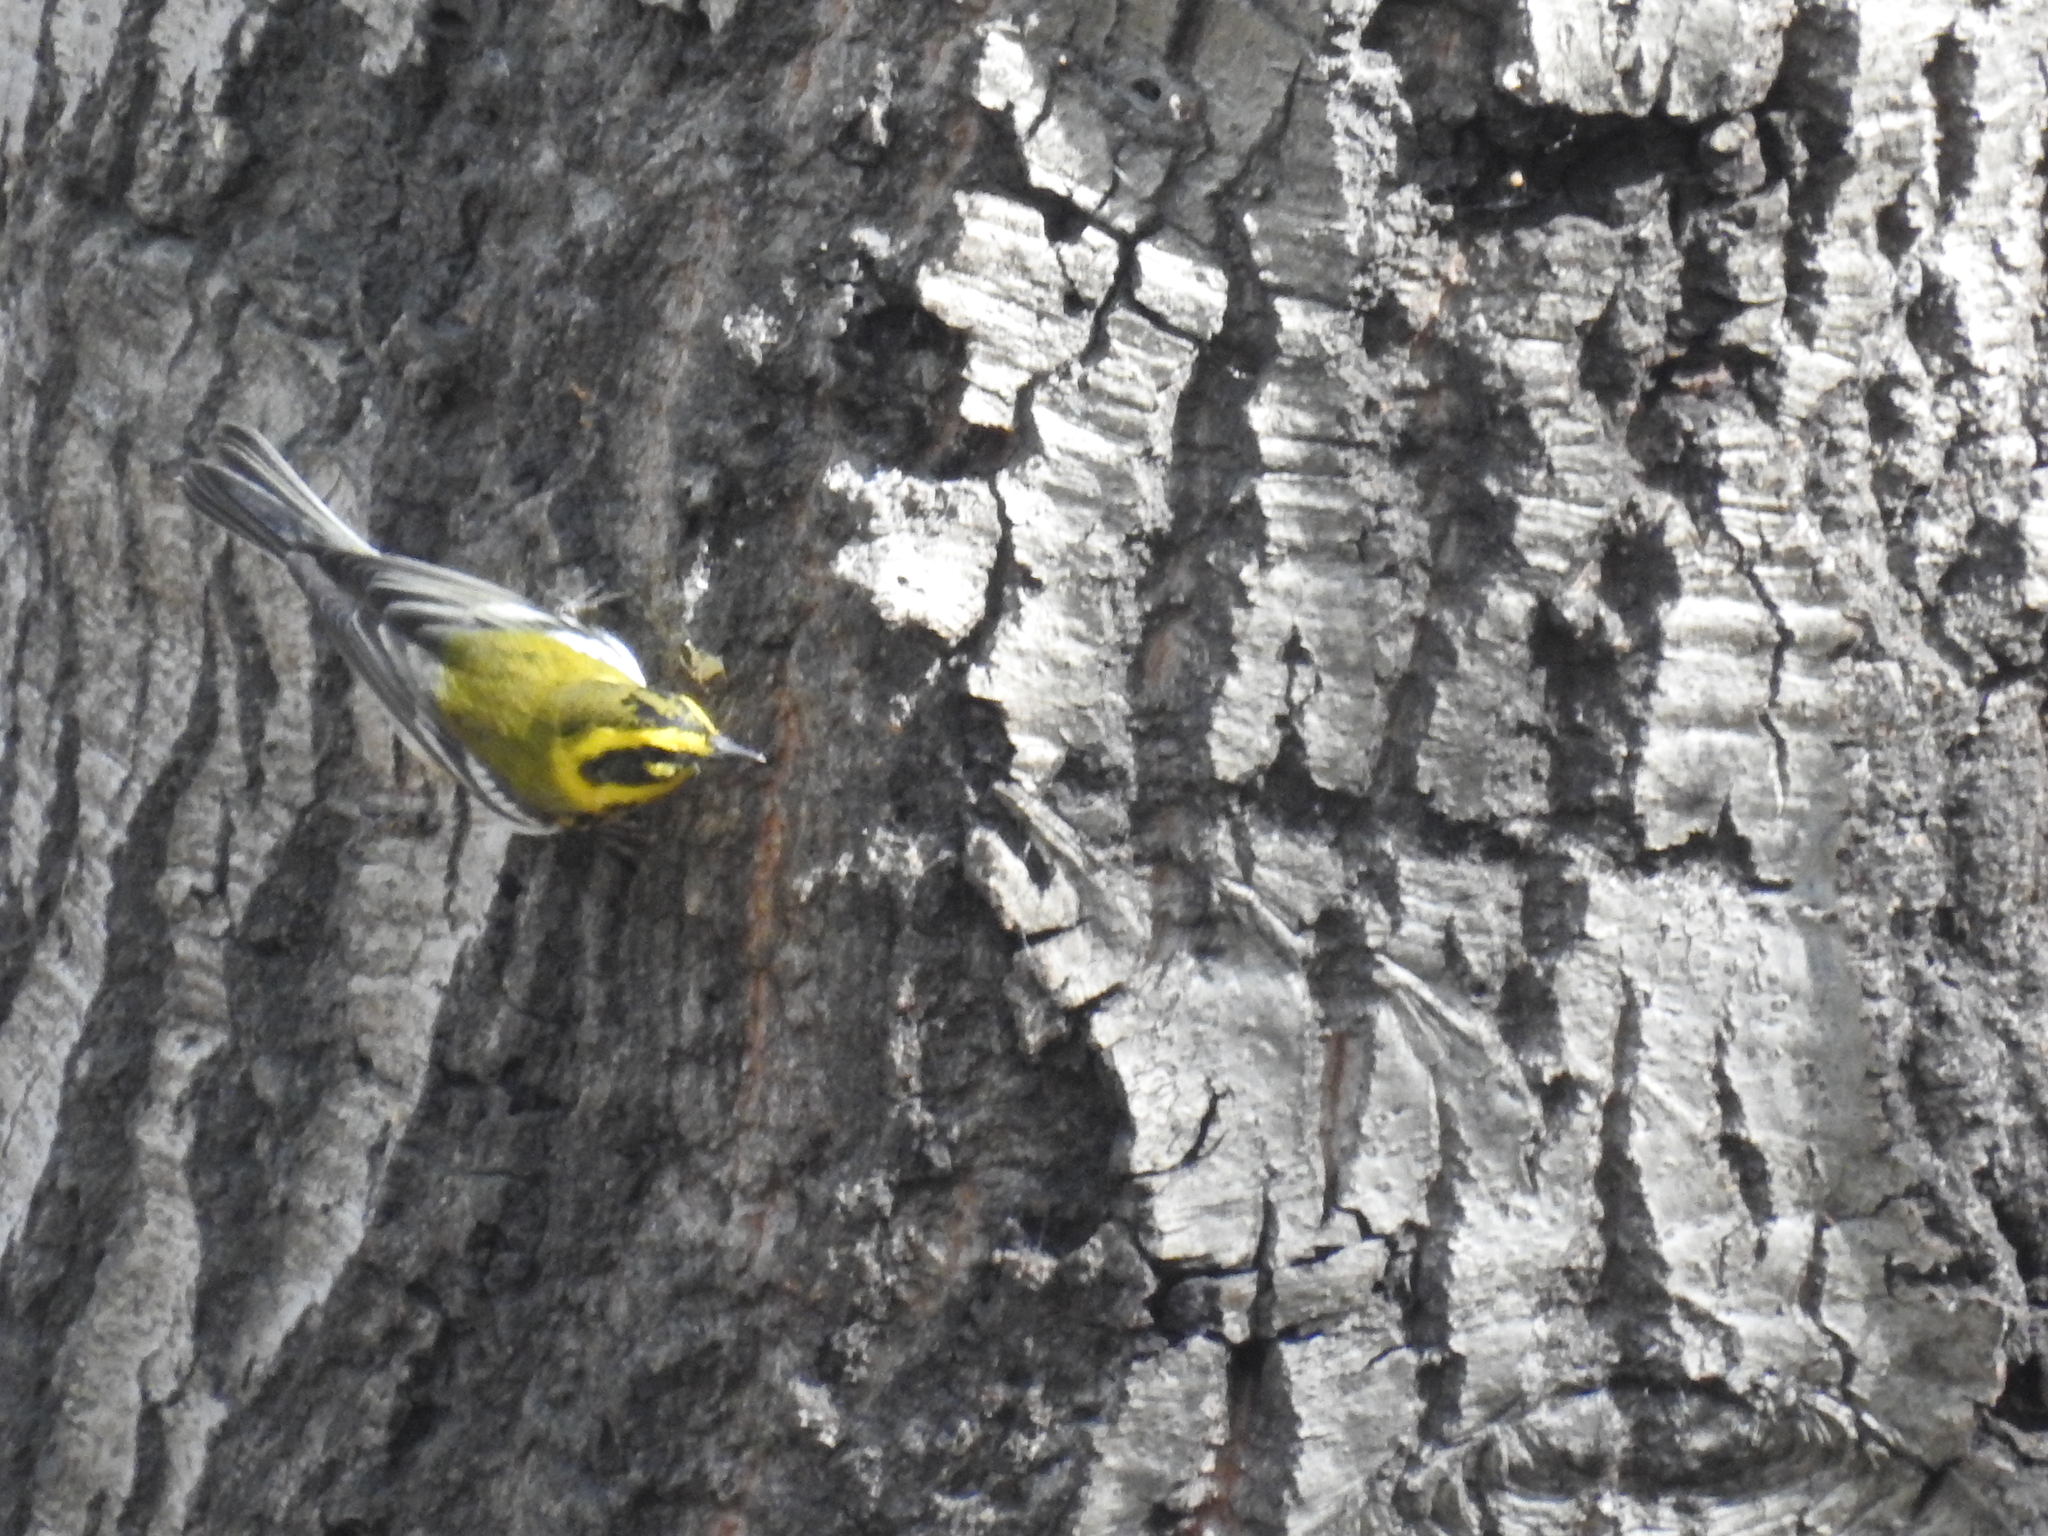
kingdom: Animalia
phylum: Chordata
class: Aves
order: Passeriformes
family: Parulidae
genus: Setophaga
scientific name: Setophaga townsendi
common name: Townsend's warbler
